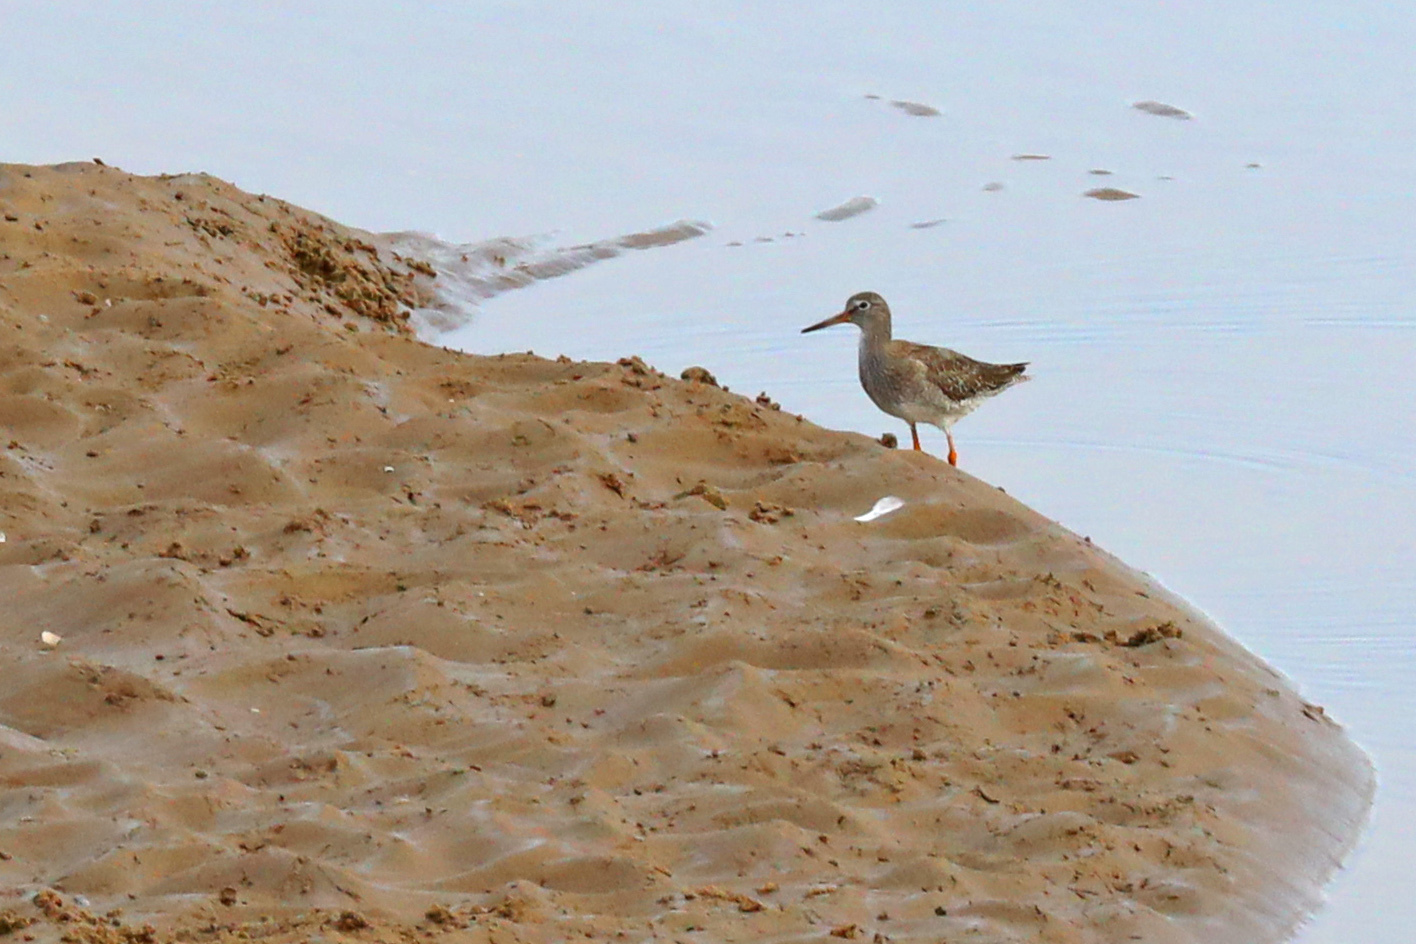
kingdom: Animalia
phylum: Chordata
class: Aves
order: Charadriiformes
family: Scolopacidae
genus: Tringa
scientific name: Tringa totanus
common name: Common redshank
